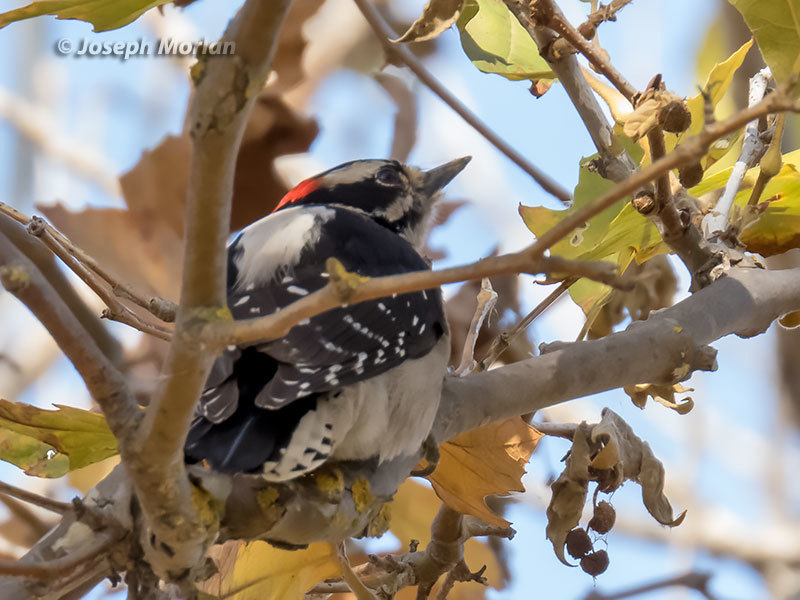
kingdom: Animalia
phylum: Chordata
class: Aves
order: Piciformes
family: Picidae
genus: Dryobates
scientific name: Dryobates pubescens
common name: Downy woodpecker
